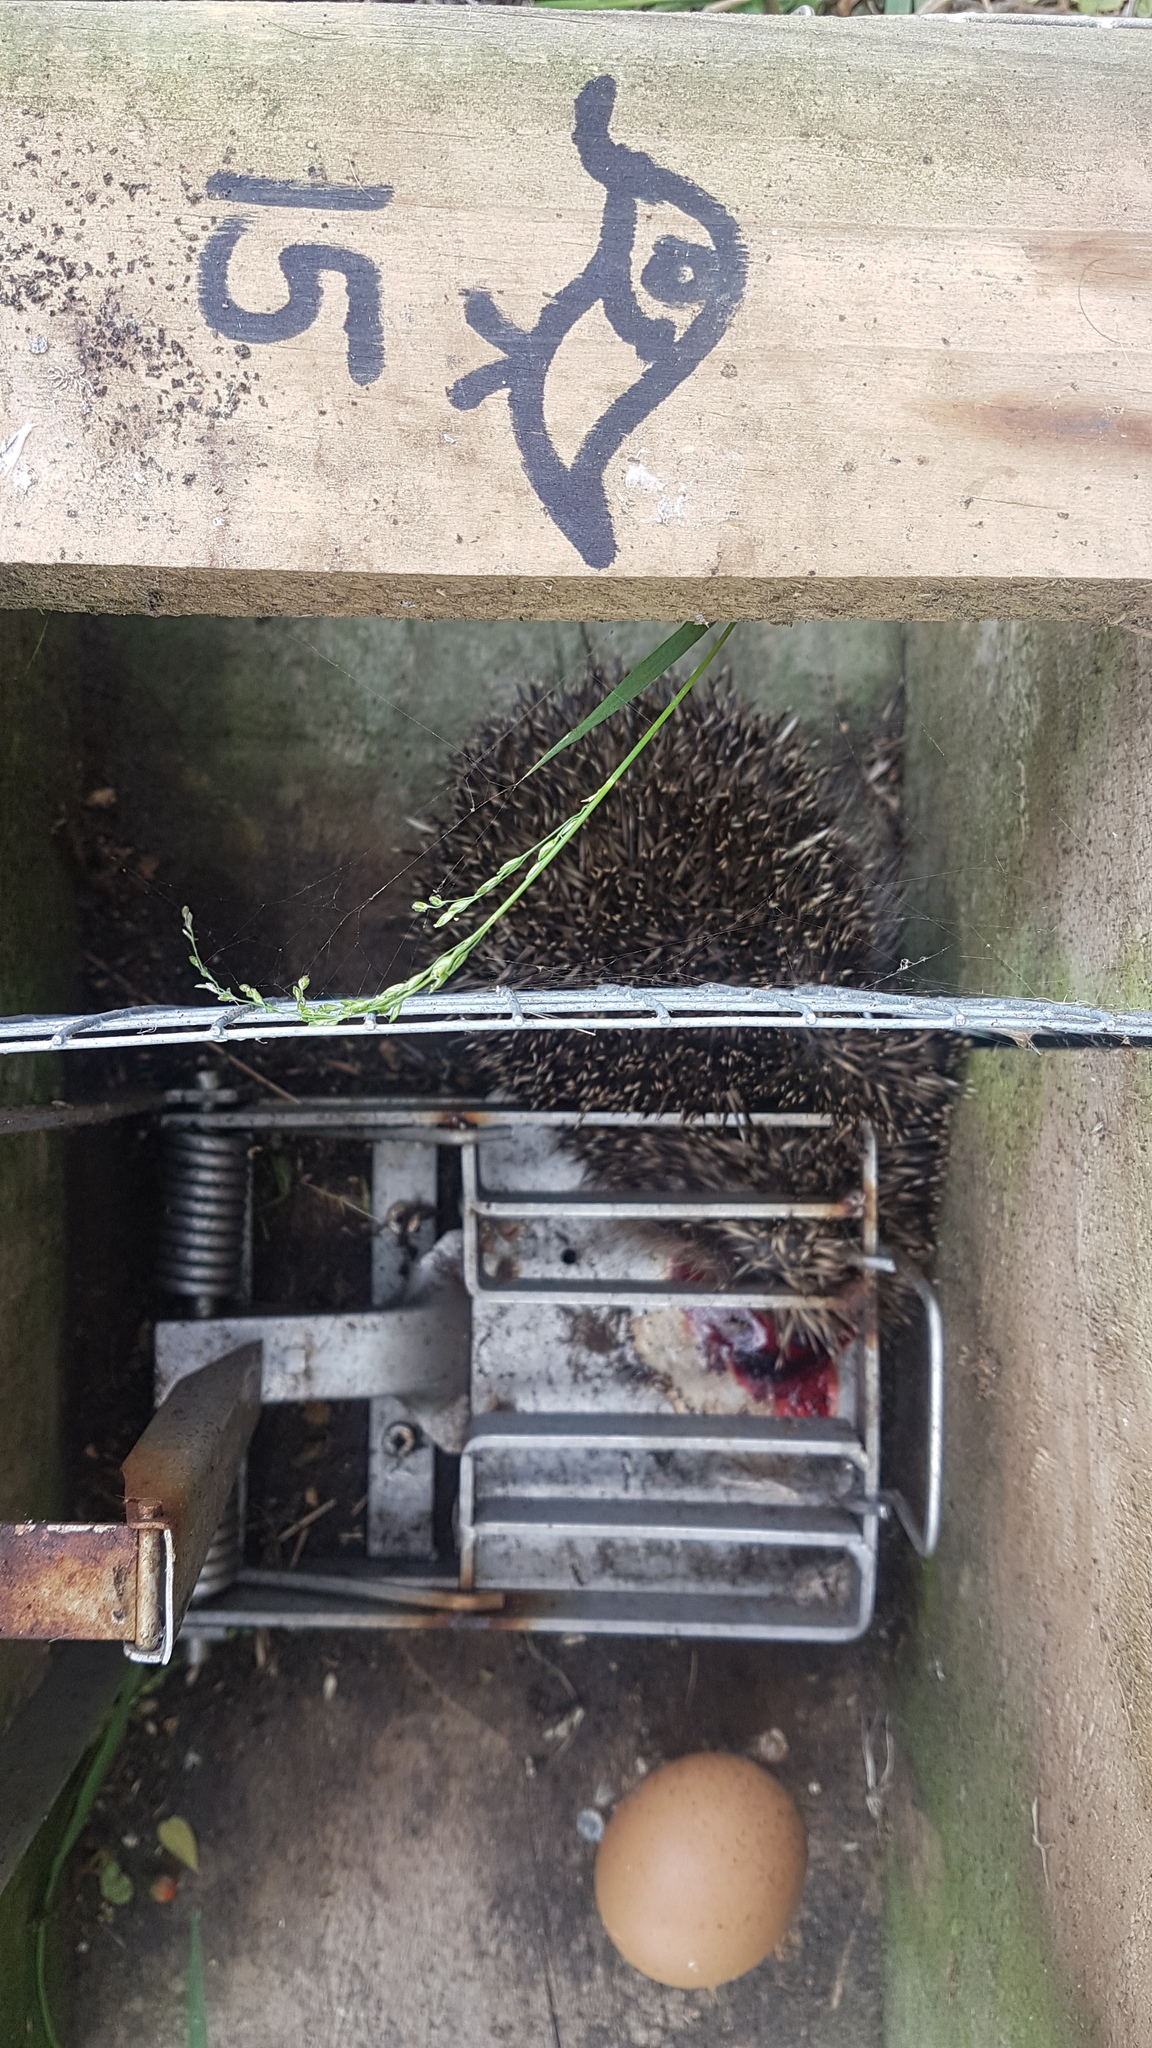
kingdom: Animalia
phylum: Chordata
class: Mammalia
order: Erinaceomorpha
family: Erinaceidae
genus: Erinaceus
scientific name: Erinaceus europaeus
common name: West european hedgehog
